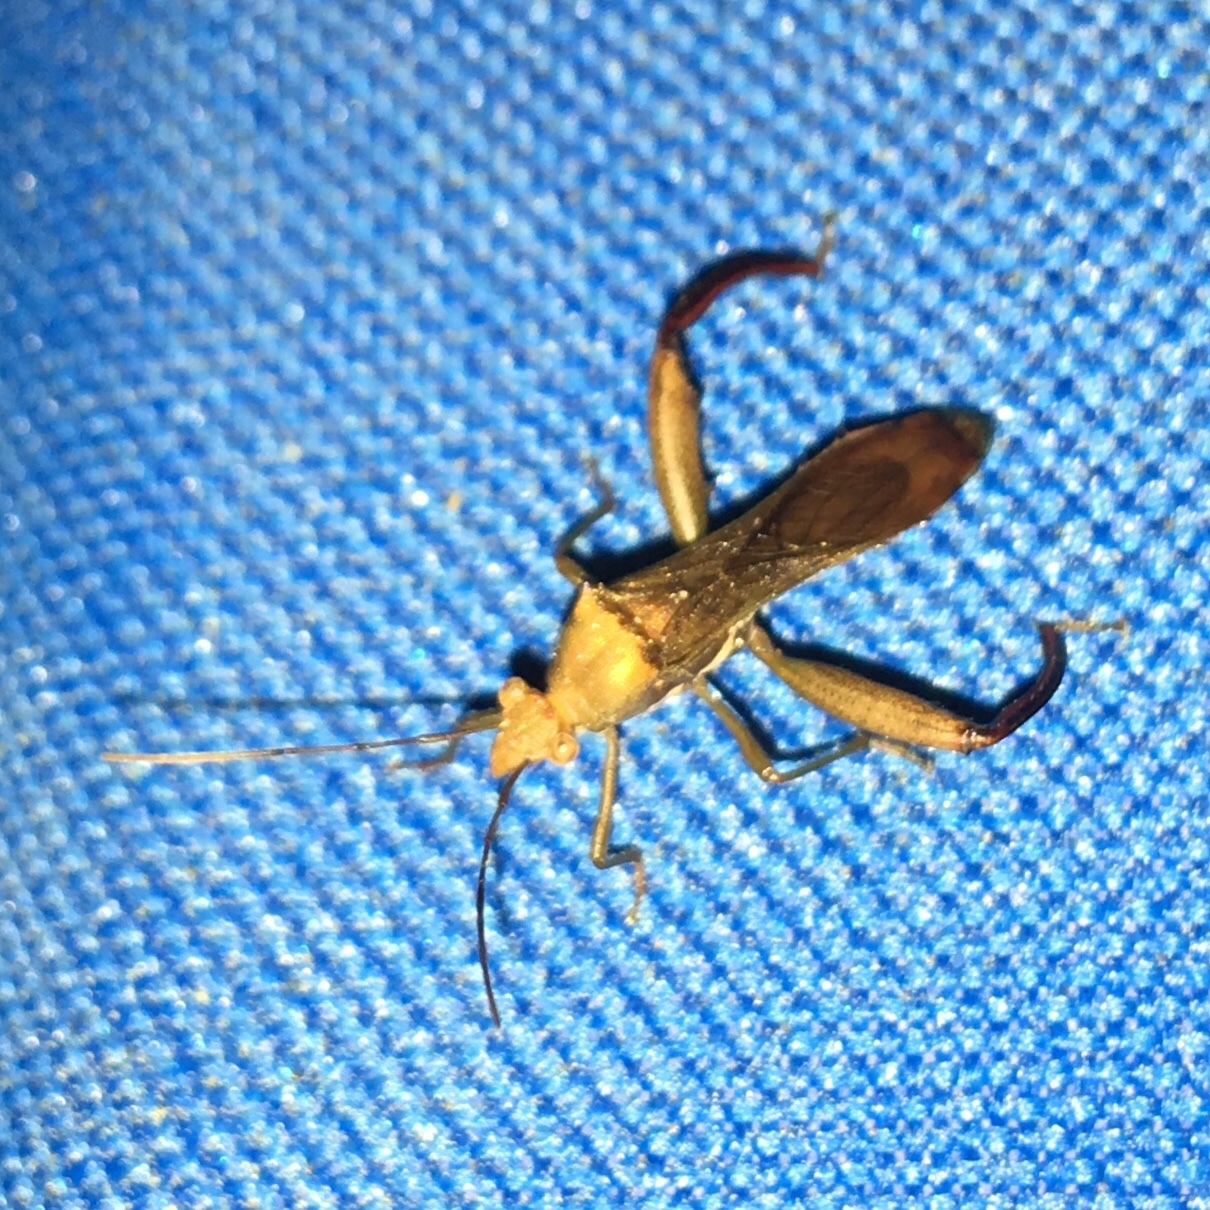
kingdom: Animalia
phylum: Arthropoda
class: Insecta
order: Hemiptera
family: Alydidae
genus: Hyalymenus
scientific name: Hyalymenus tarsatus
